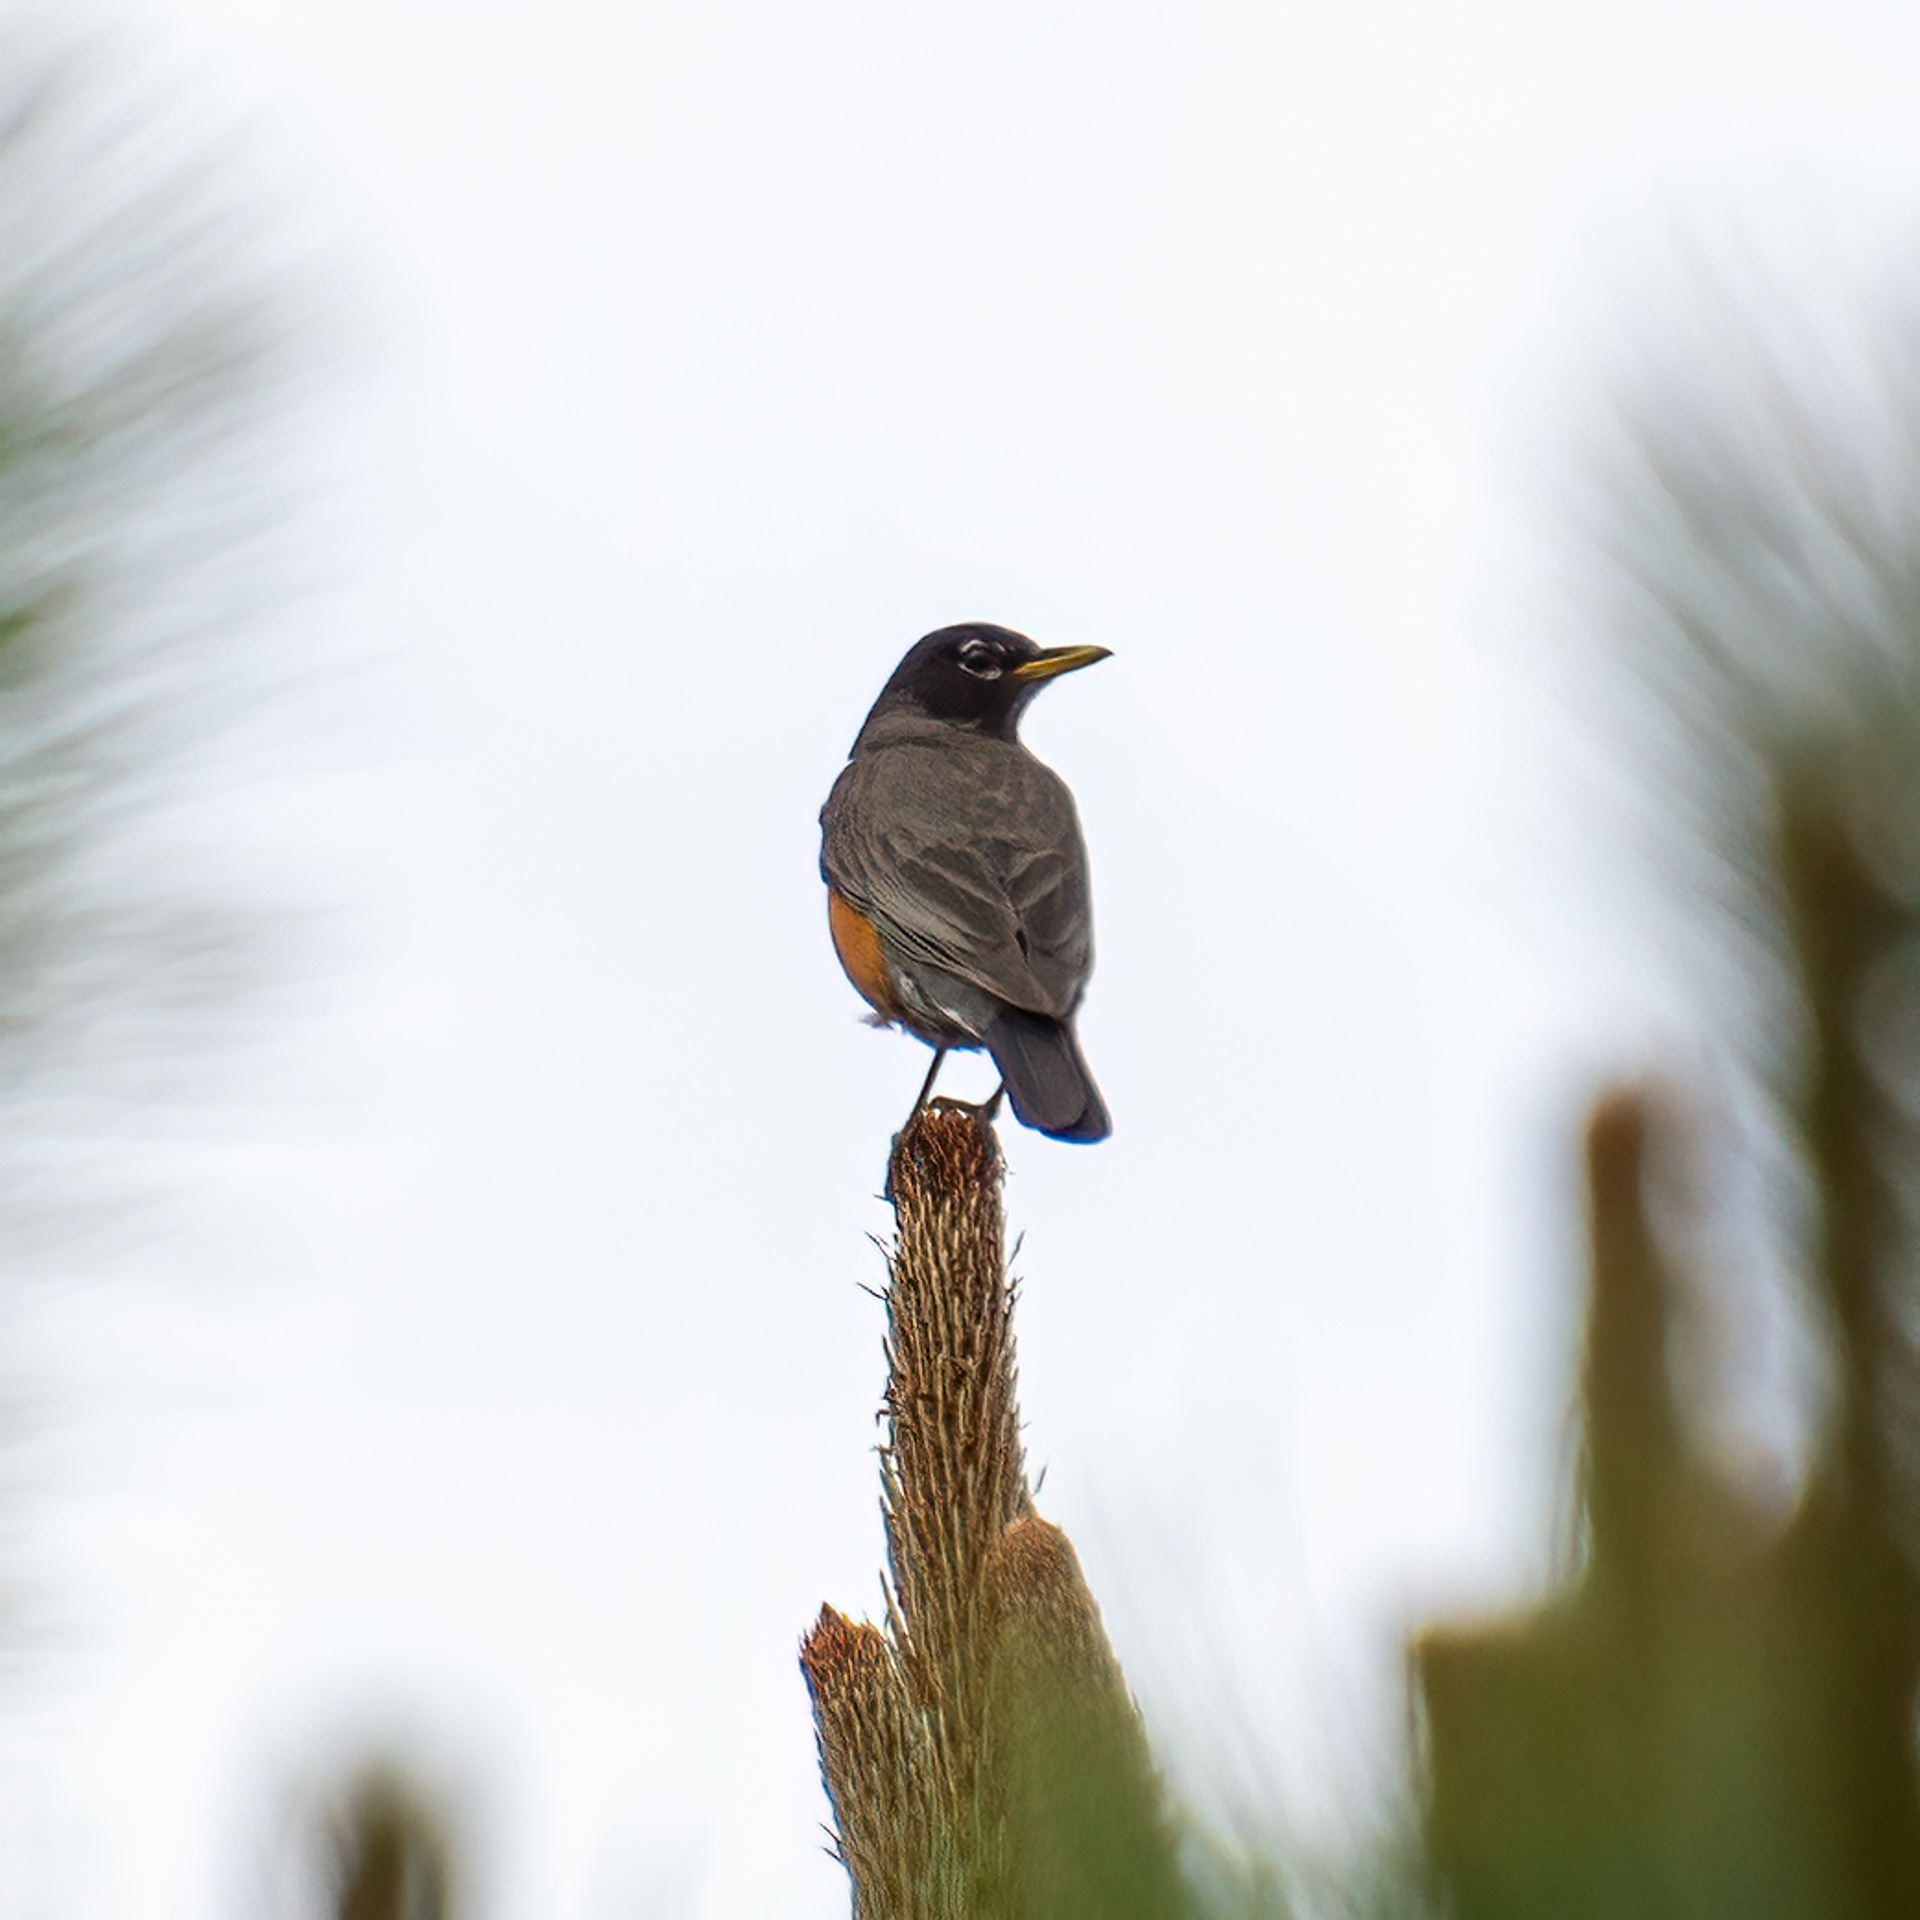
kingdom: Animalia
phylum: Chordata
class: Aves
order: Passeriformes
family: Turdidae
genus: Turdus
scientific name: Turdus migratorius
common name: American robin
